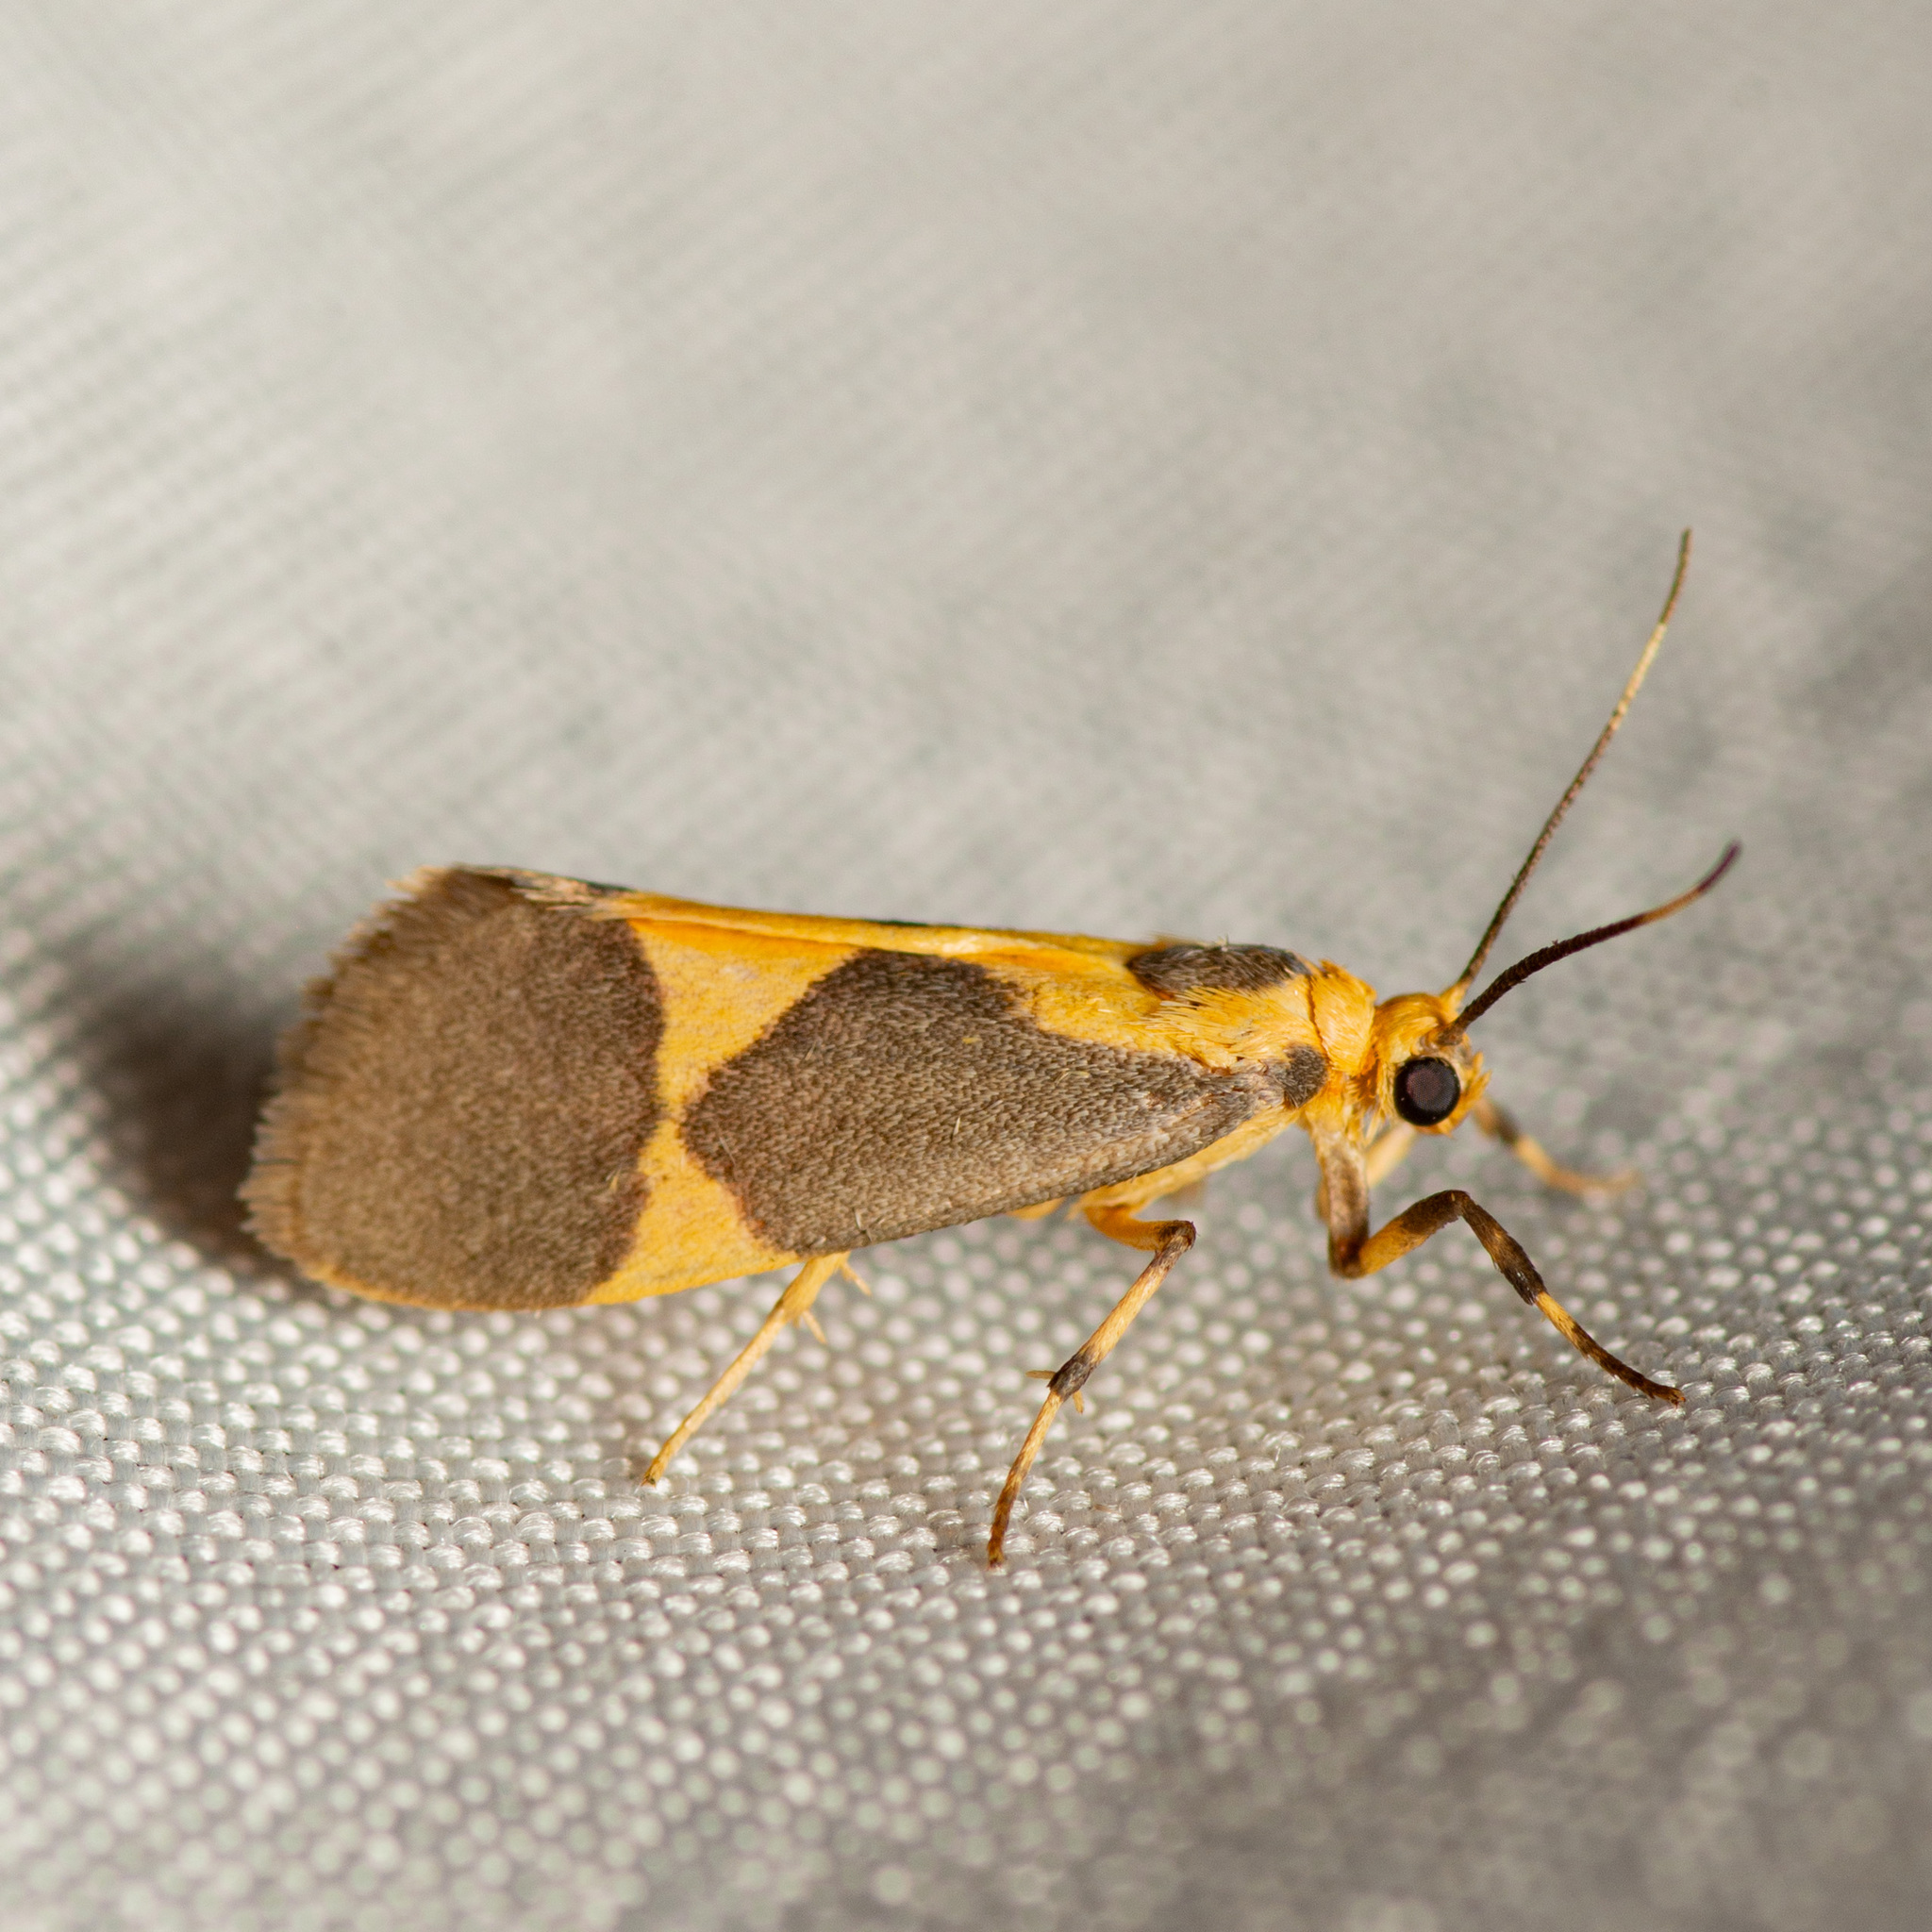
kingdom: Animalia
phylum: Arthropoda
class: Insecta
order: Lepidoptera
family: Erebidae
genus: Cisthene
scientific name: Cisthene unifascia
